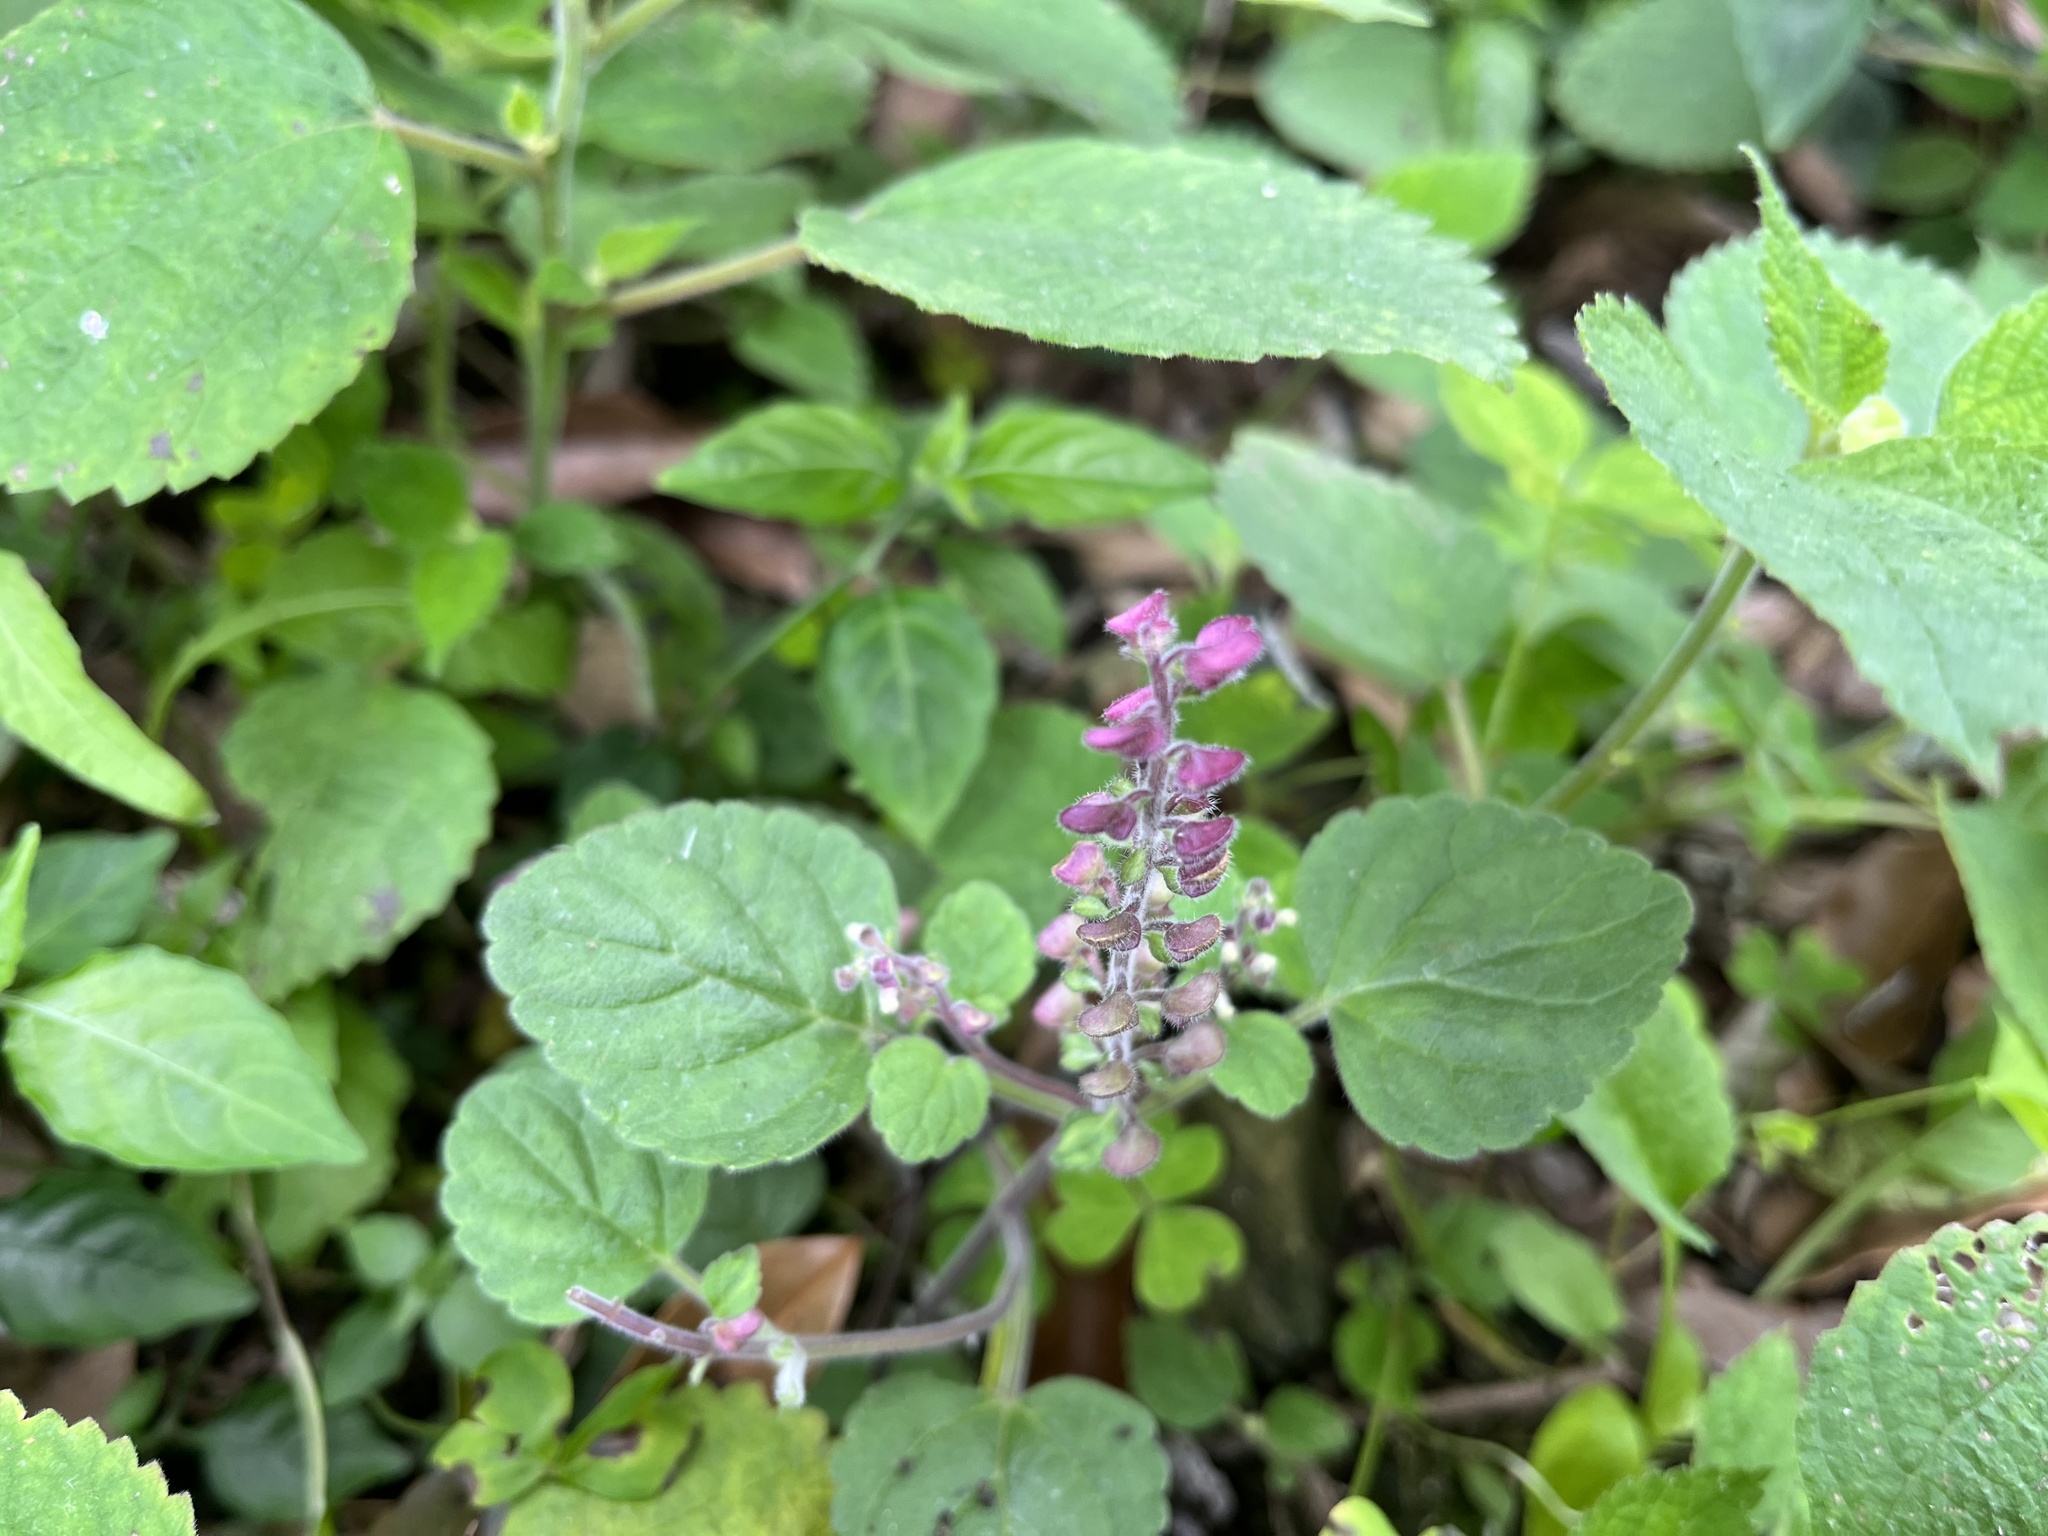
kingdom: Plantae
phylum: Tracheophyta
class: Magnoliopsida
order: Lamiales
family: Lamiaceae
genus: Scutellaria
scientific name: Scutellaria indica
